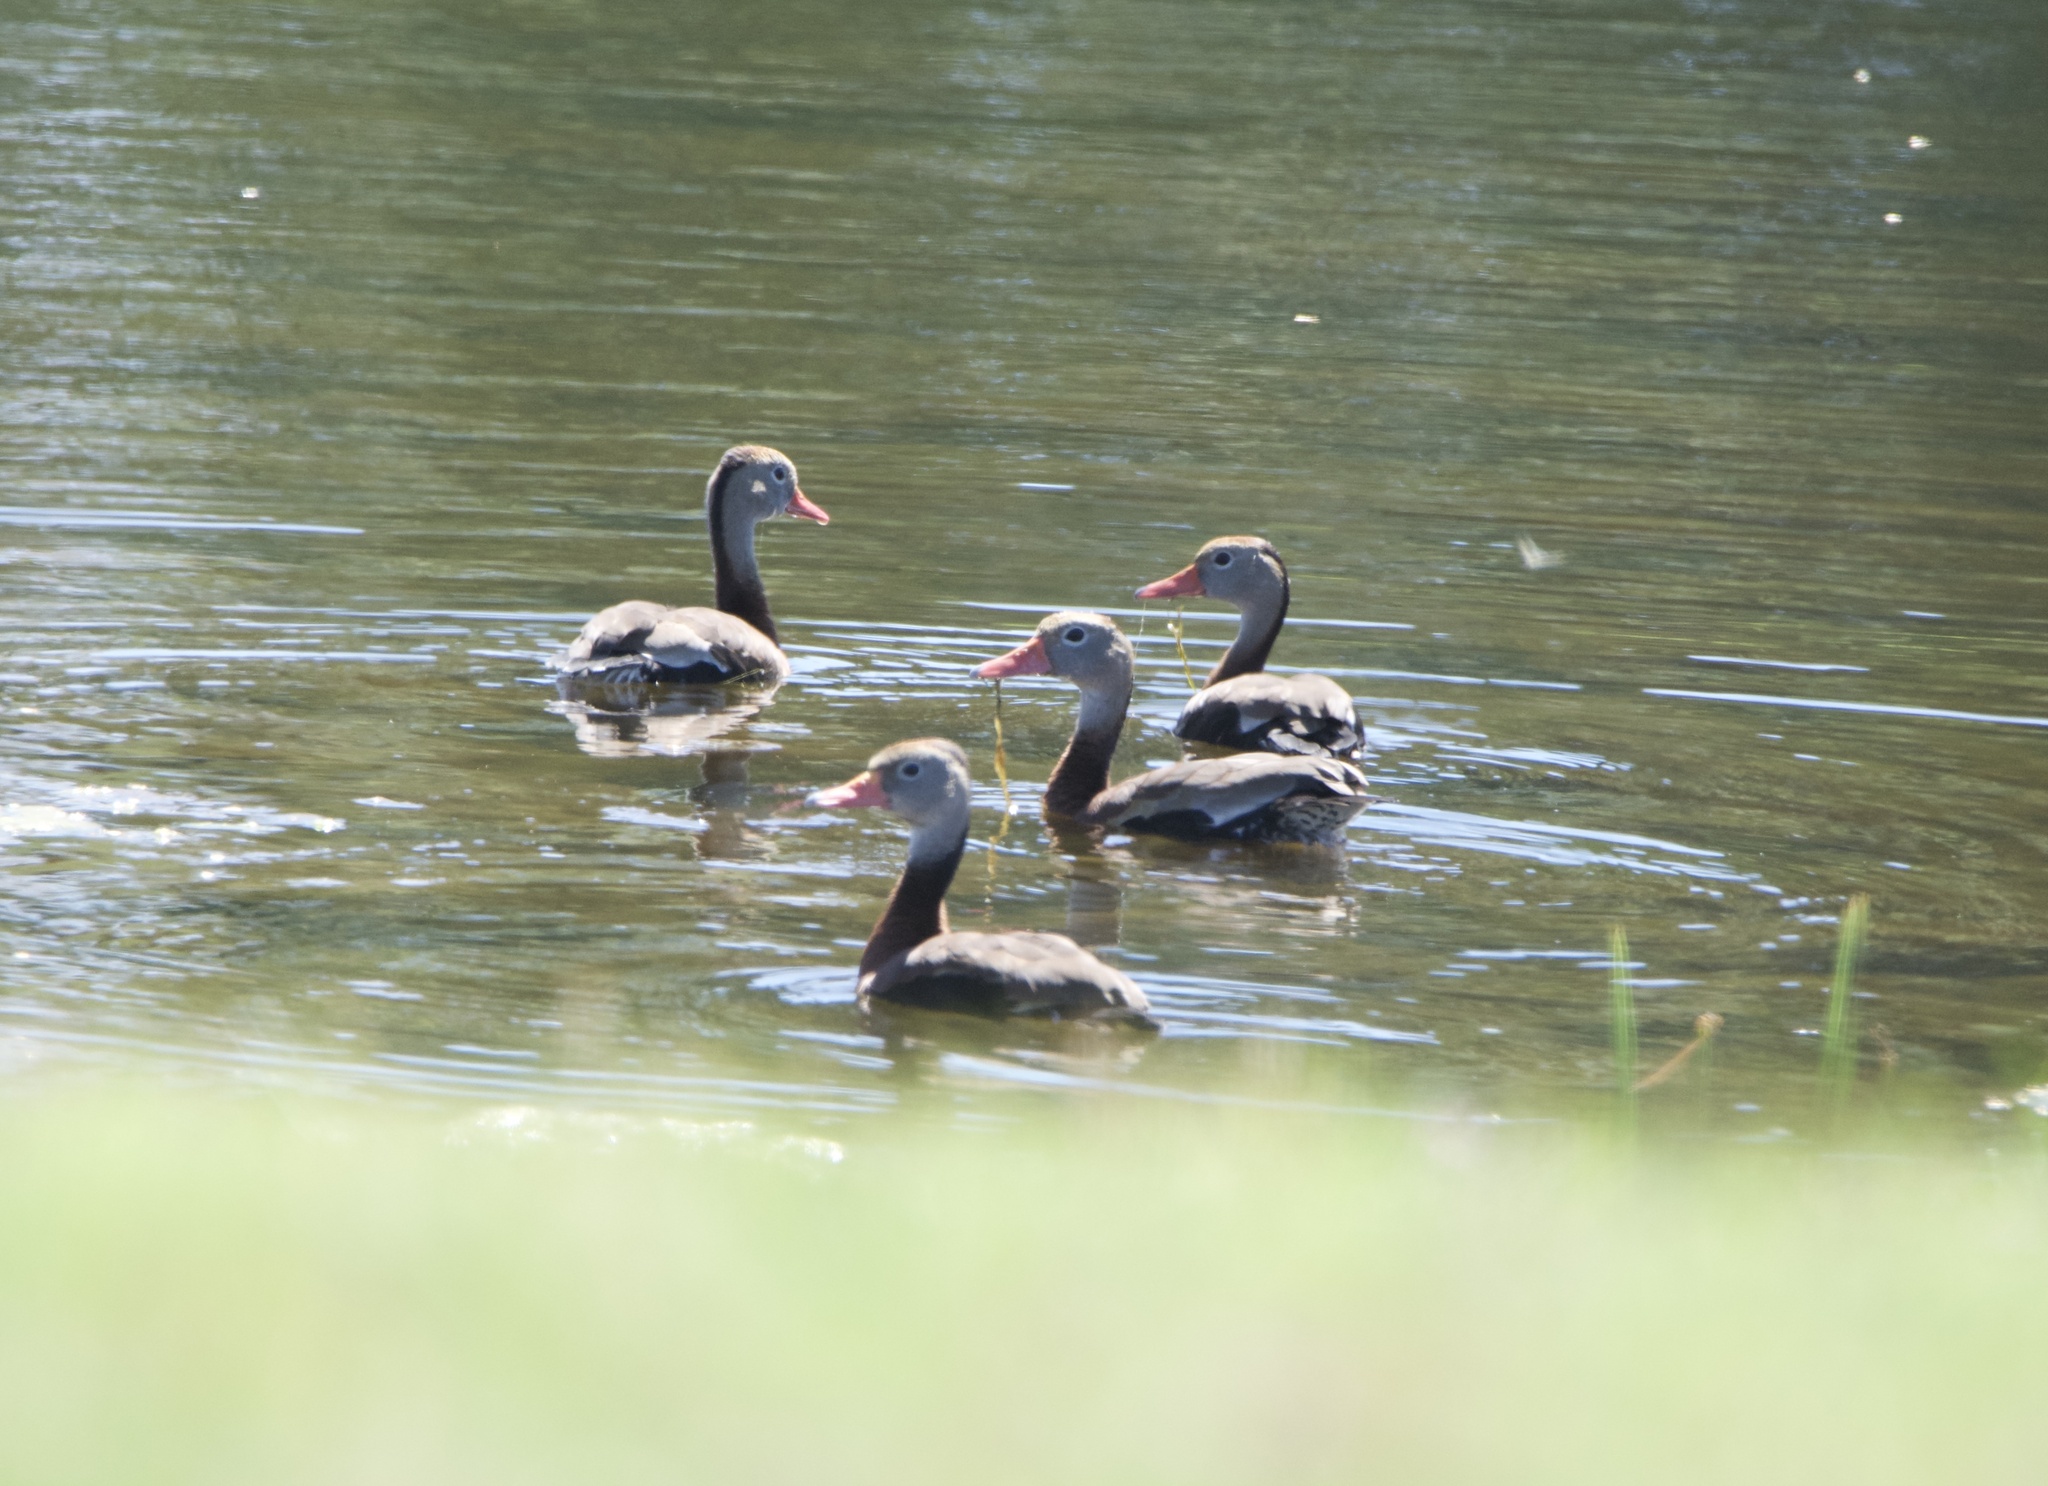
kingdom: Animalia
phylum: Chordata
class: Aves
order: Anseriformes
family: Anatidae
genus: Dendrocygna
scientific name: Dendrocygna autumnalis
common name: Black-bellied whistling duck
